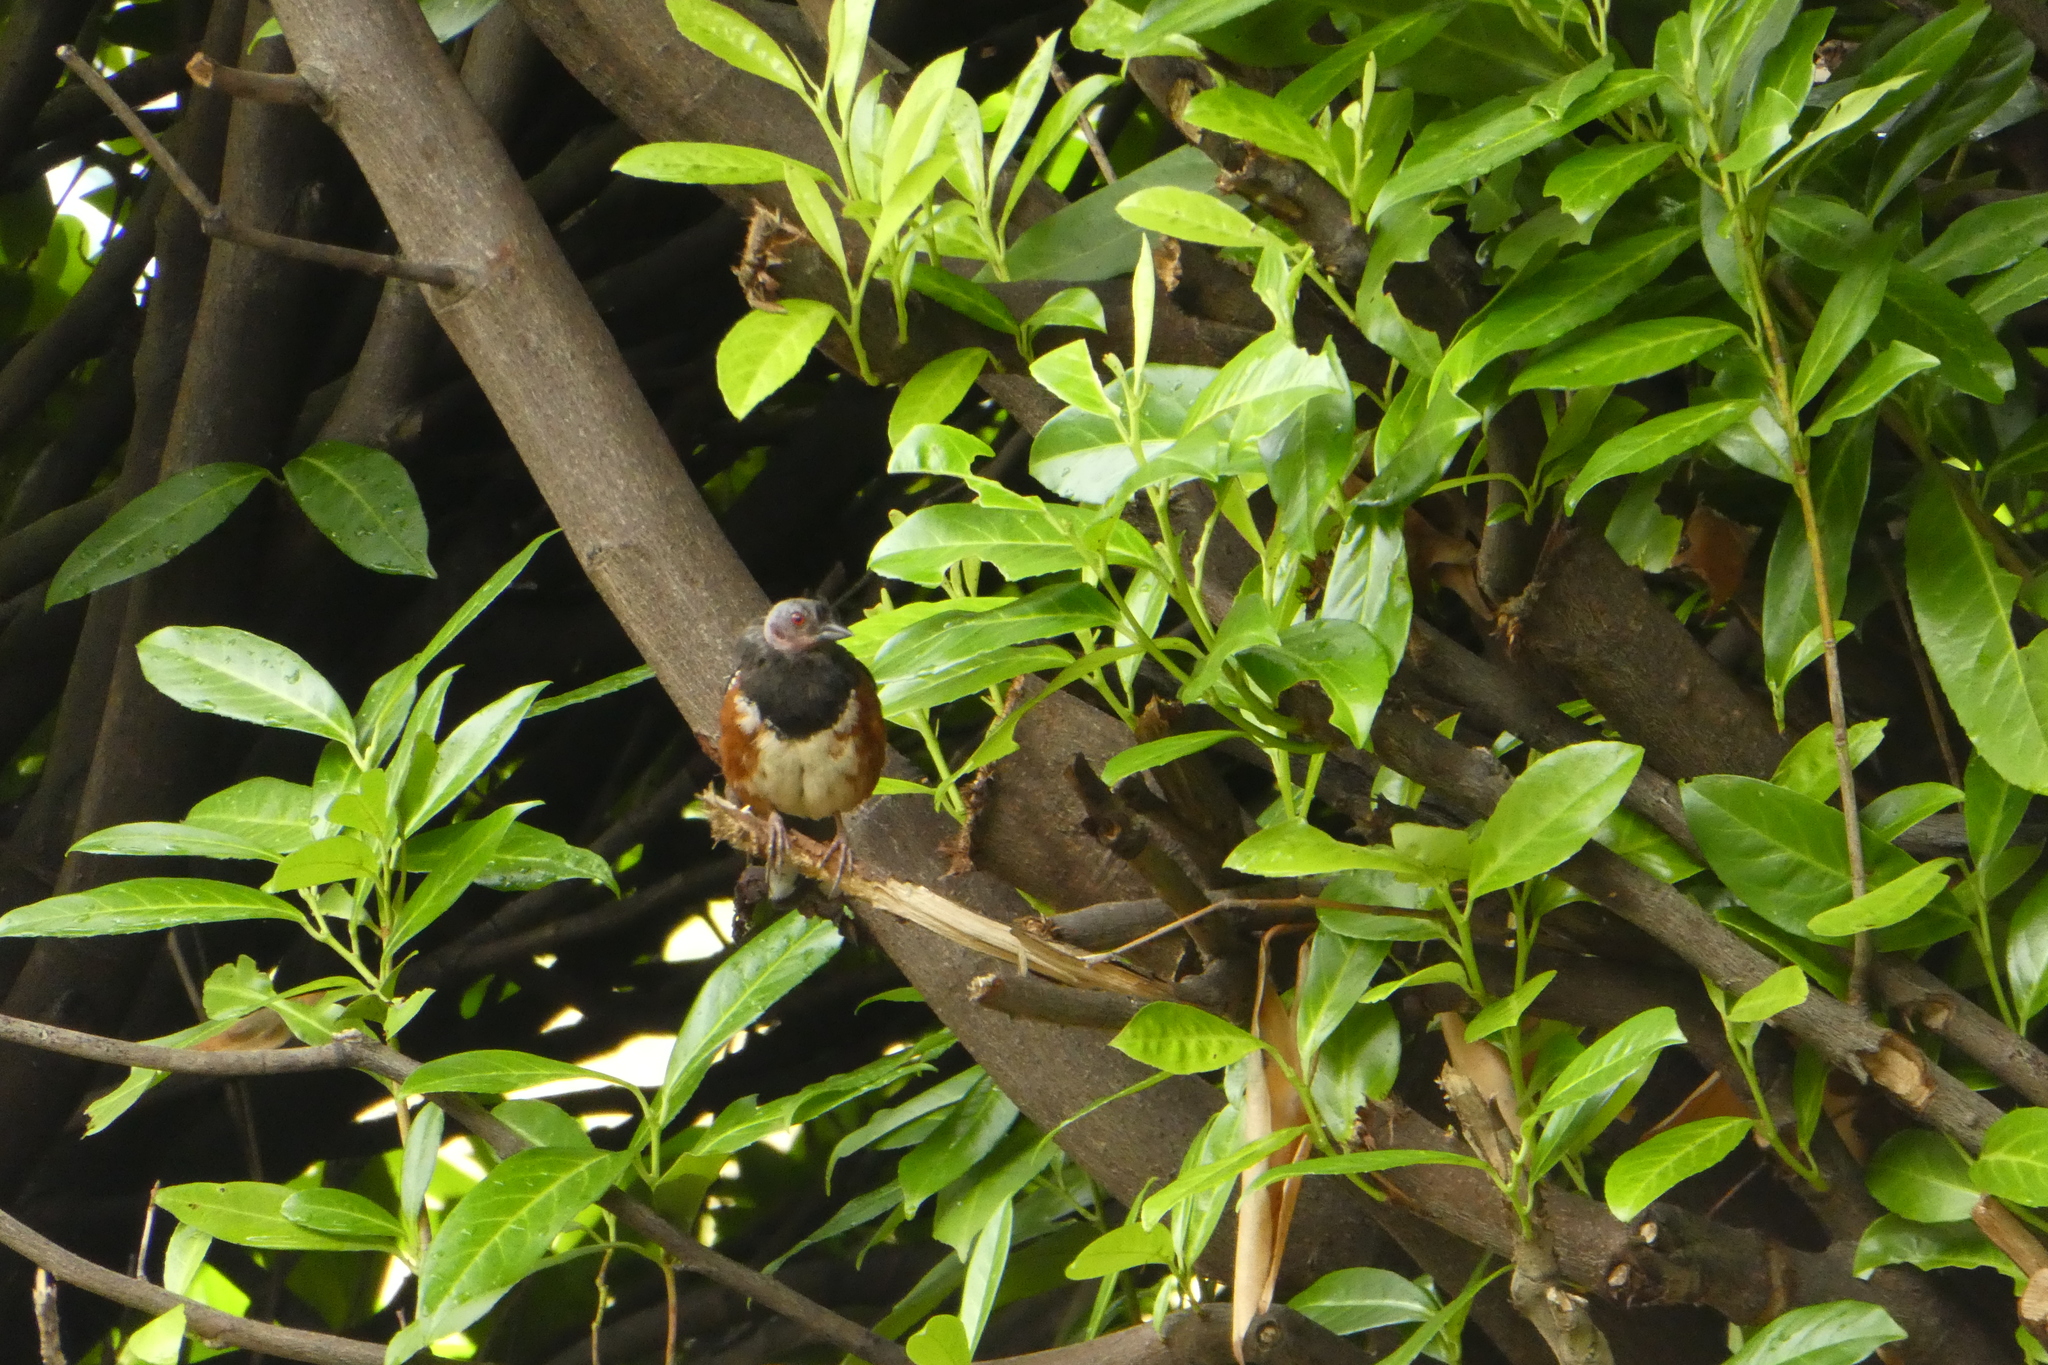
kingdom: Animalia
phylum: Chordata
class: Aves
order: Passeriformes
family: Passerellidae
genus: Pipilo
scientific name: Pipilo maculatus
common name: Spotted towhee
